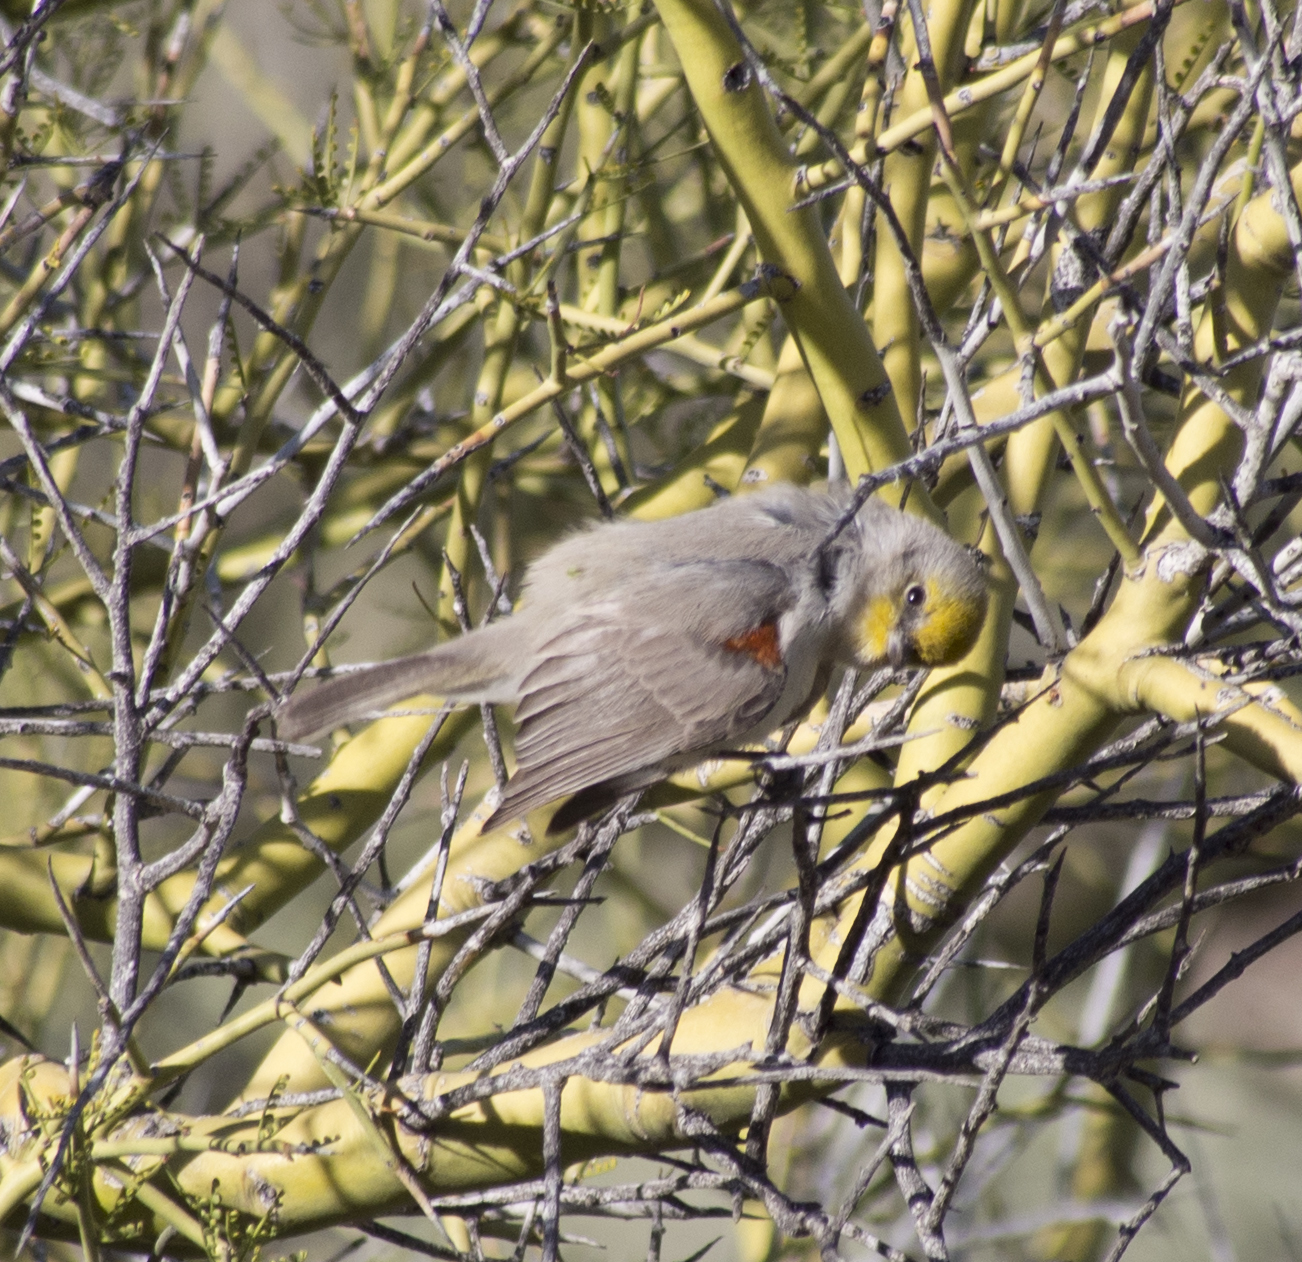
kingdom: Animalia
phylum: Chordata
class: Aves
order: Passeriformes
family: Remizidae
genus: Auriparus
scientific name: Auriparus flaviceps
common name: Verdin
